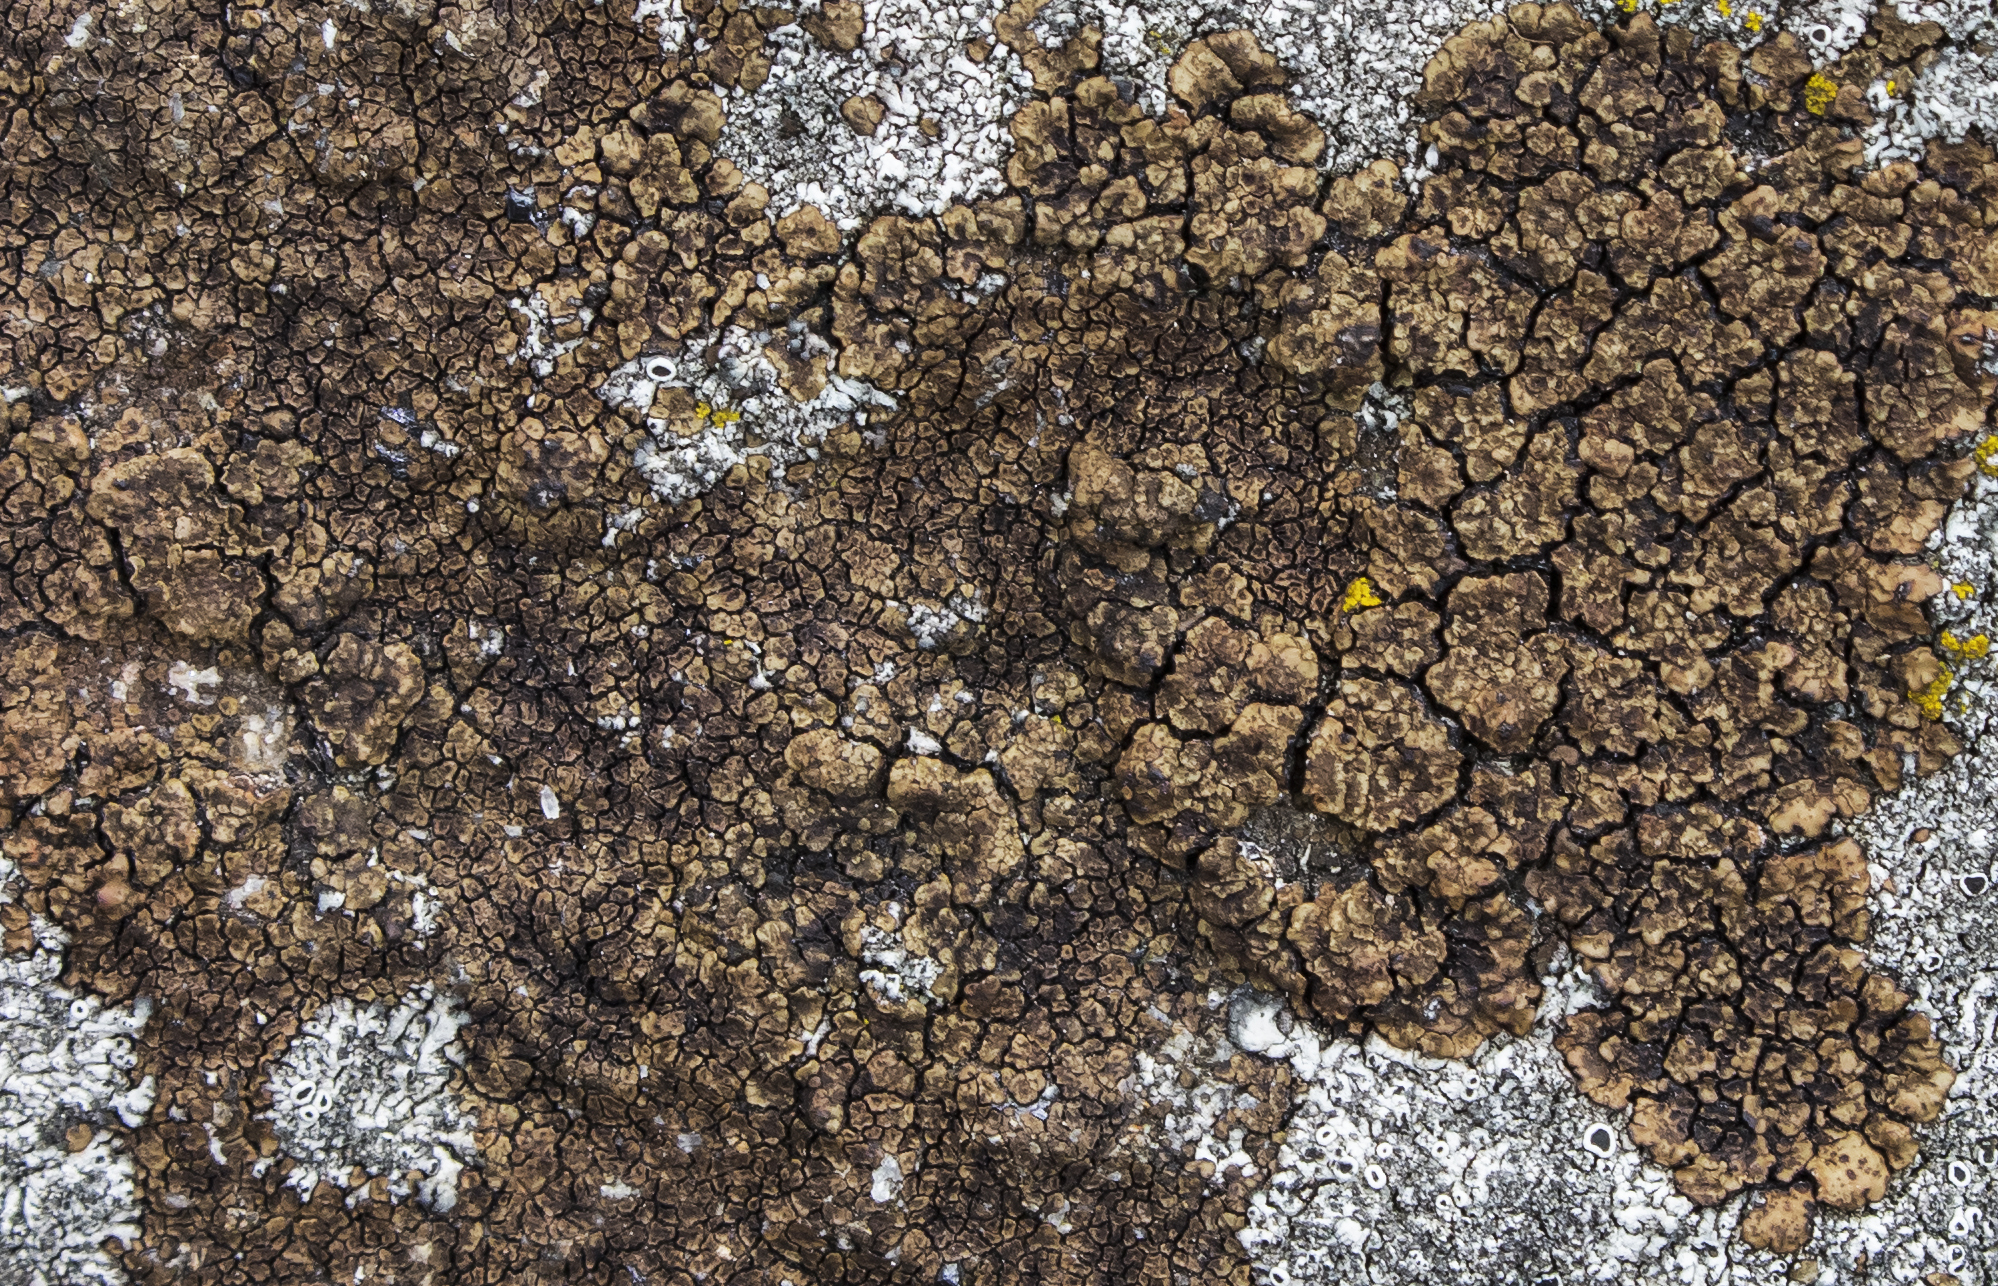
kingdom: Fungi
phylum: Ascomycota
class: Lecanoromycetes
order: Acarosporales
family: Acarosporaceae
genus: Acarospora
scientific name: Acarospora fuscata
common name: Brown cobblestone lichen
